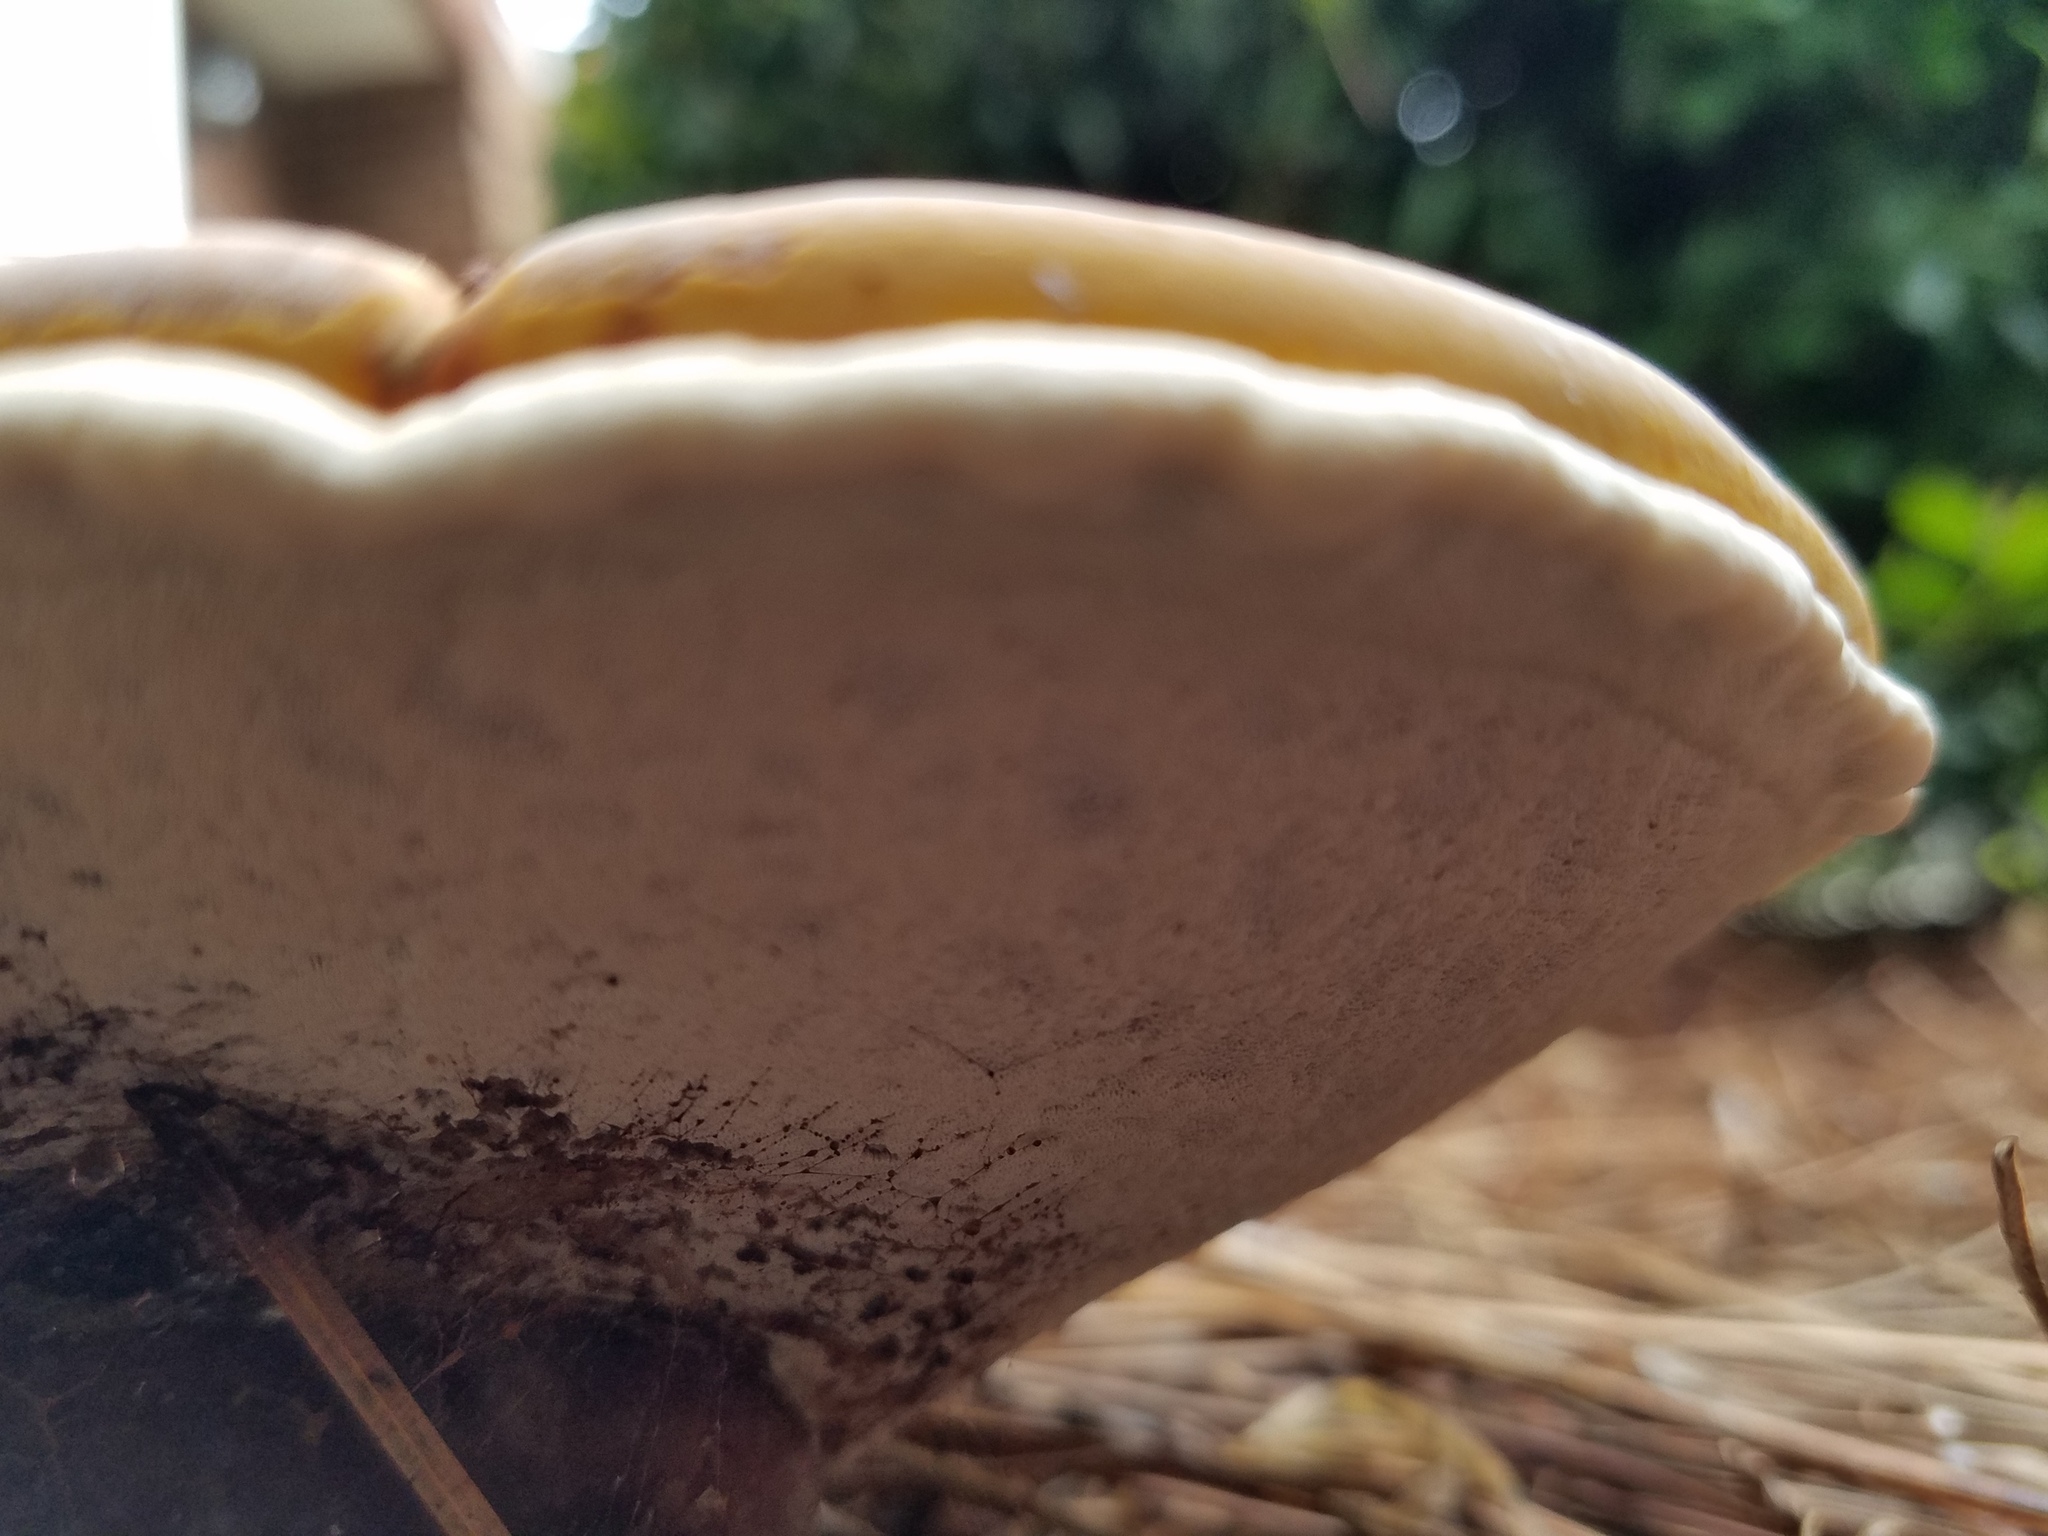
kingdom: Fungi
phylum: Basidiomycota
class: Agaricomycetes
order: Polyporales
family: Polyporaceae
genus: Ganoderma
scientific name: Ganoderma curtisii
